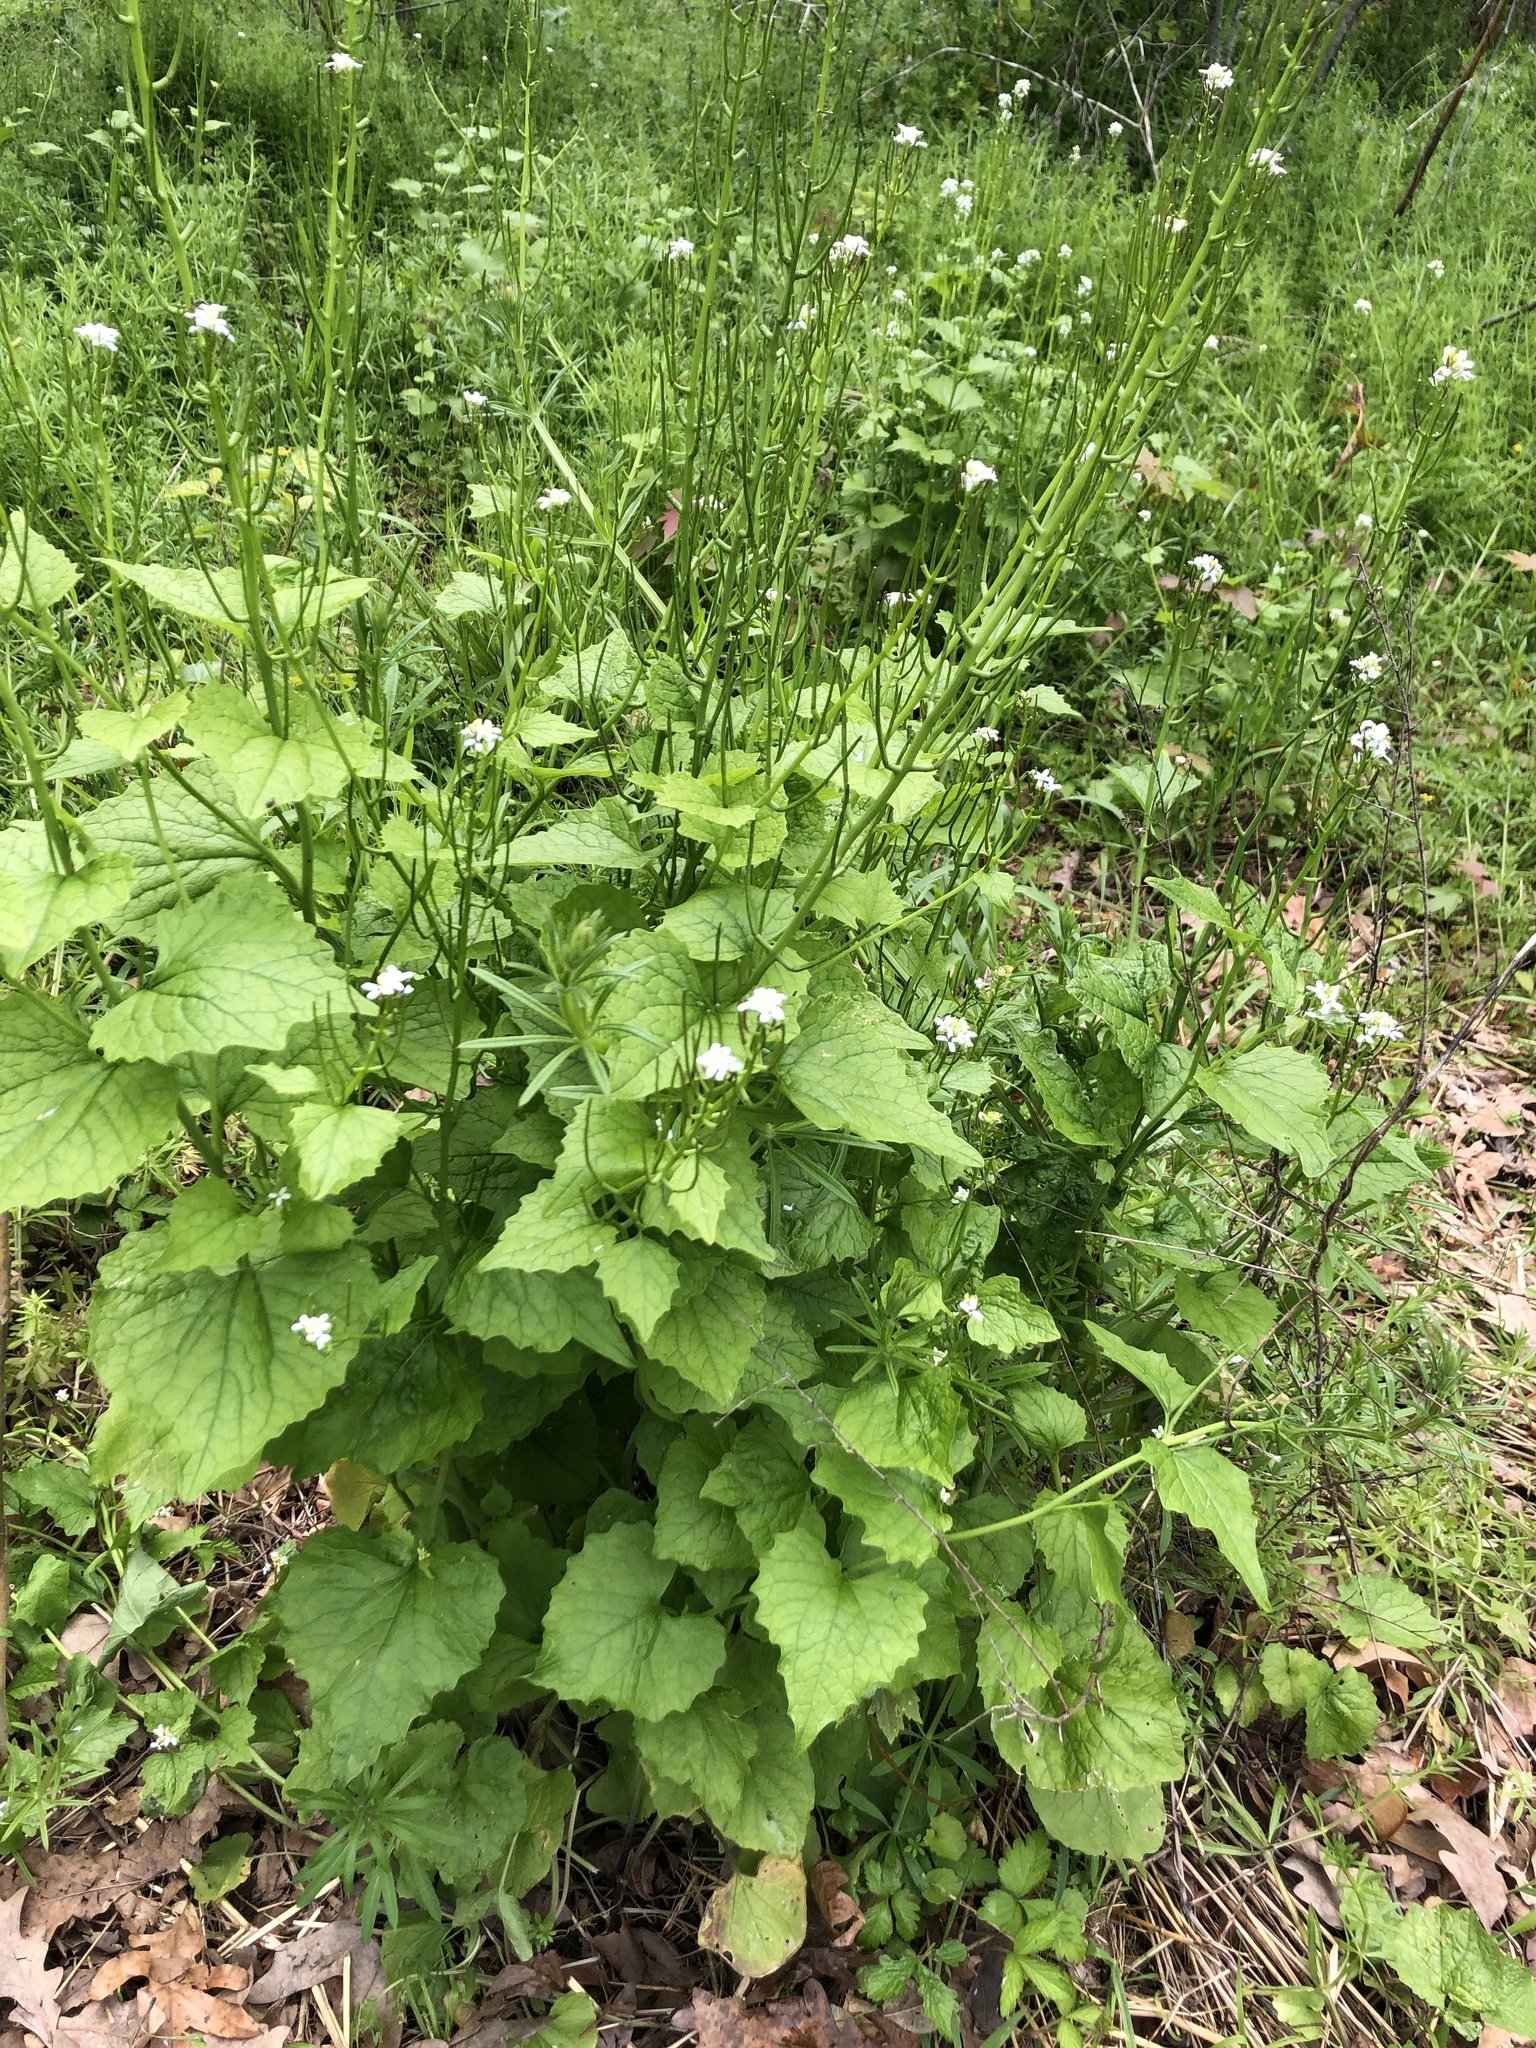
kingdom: Plantae
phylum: Tracheophyta
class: Magnoliopsida
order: Brassicales
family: Brassicaceae
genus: Alliaria
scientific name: Alliaria petiolata
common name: Garlic mustard
